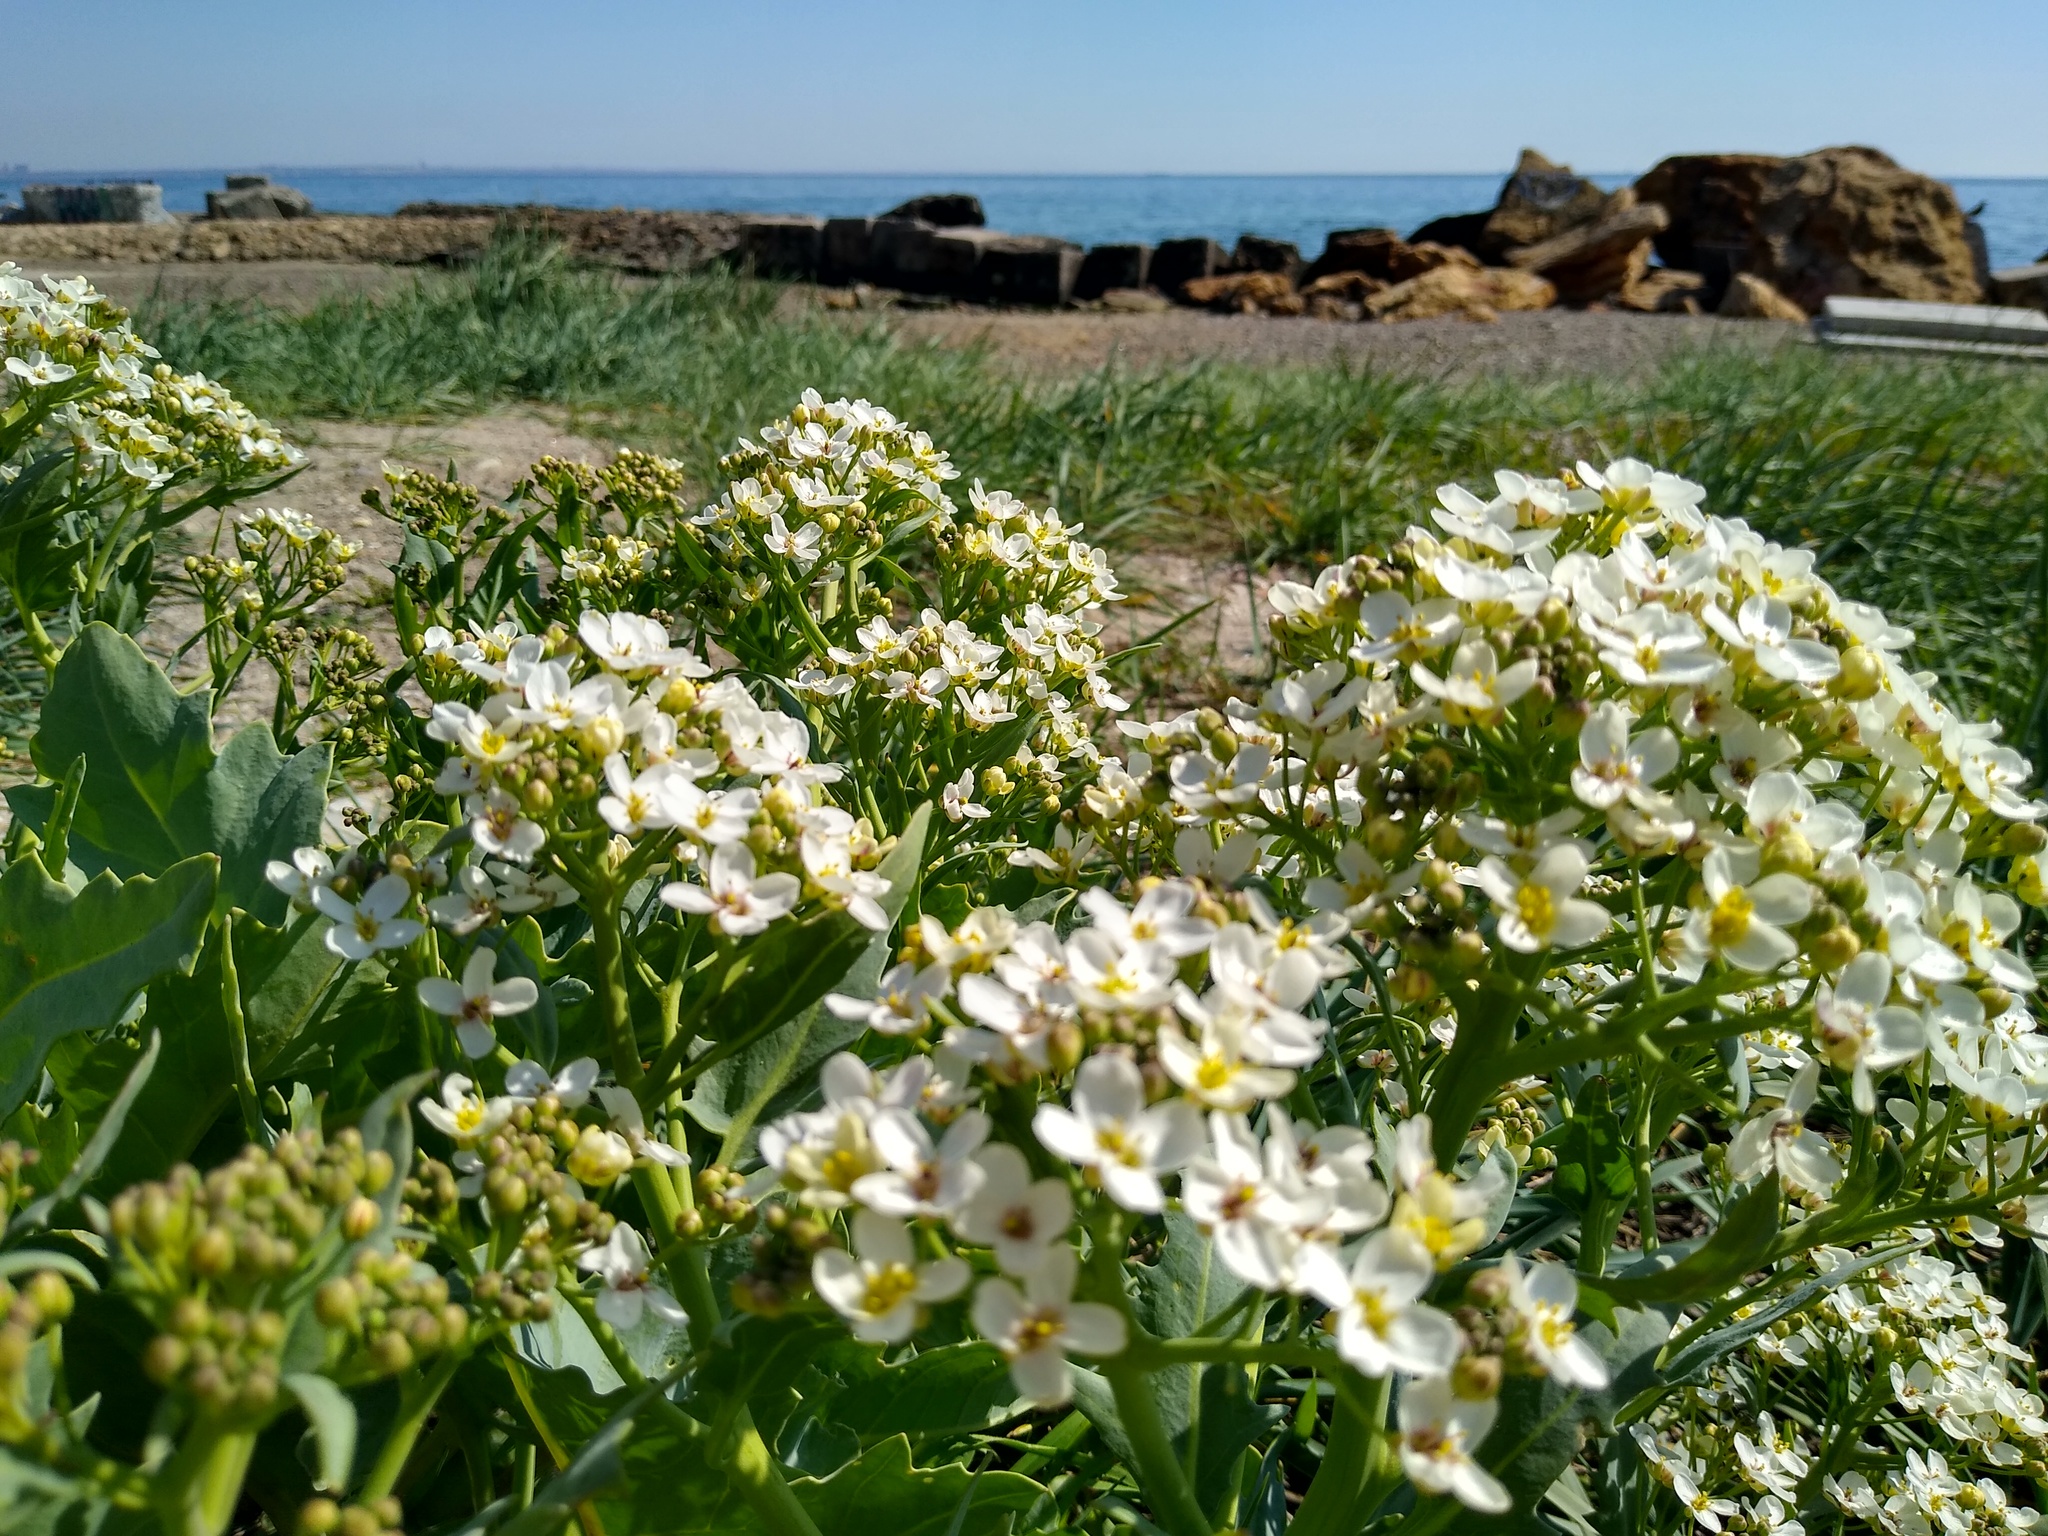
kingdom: Plantae
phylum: Tracheophyta
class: Magnoliopsida
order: Brassicales
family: Brassicaceae
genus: Crambe
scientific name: Crambe maritima
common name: Sea-kale
